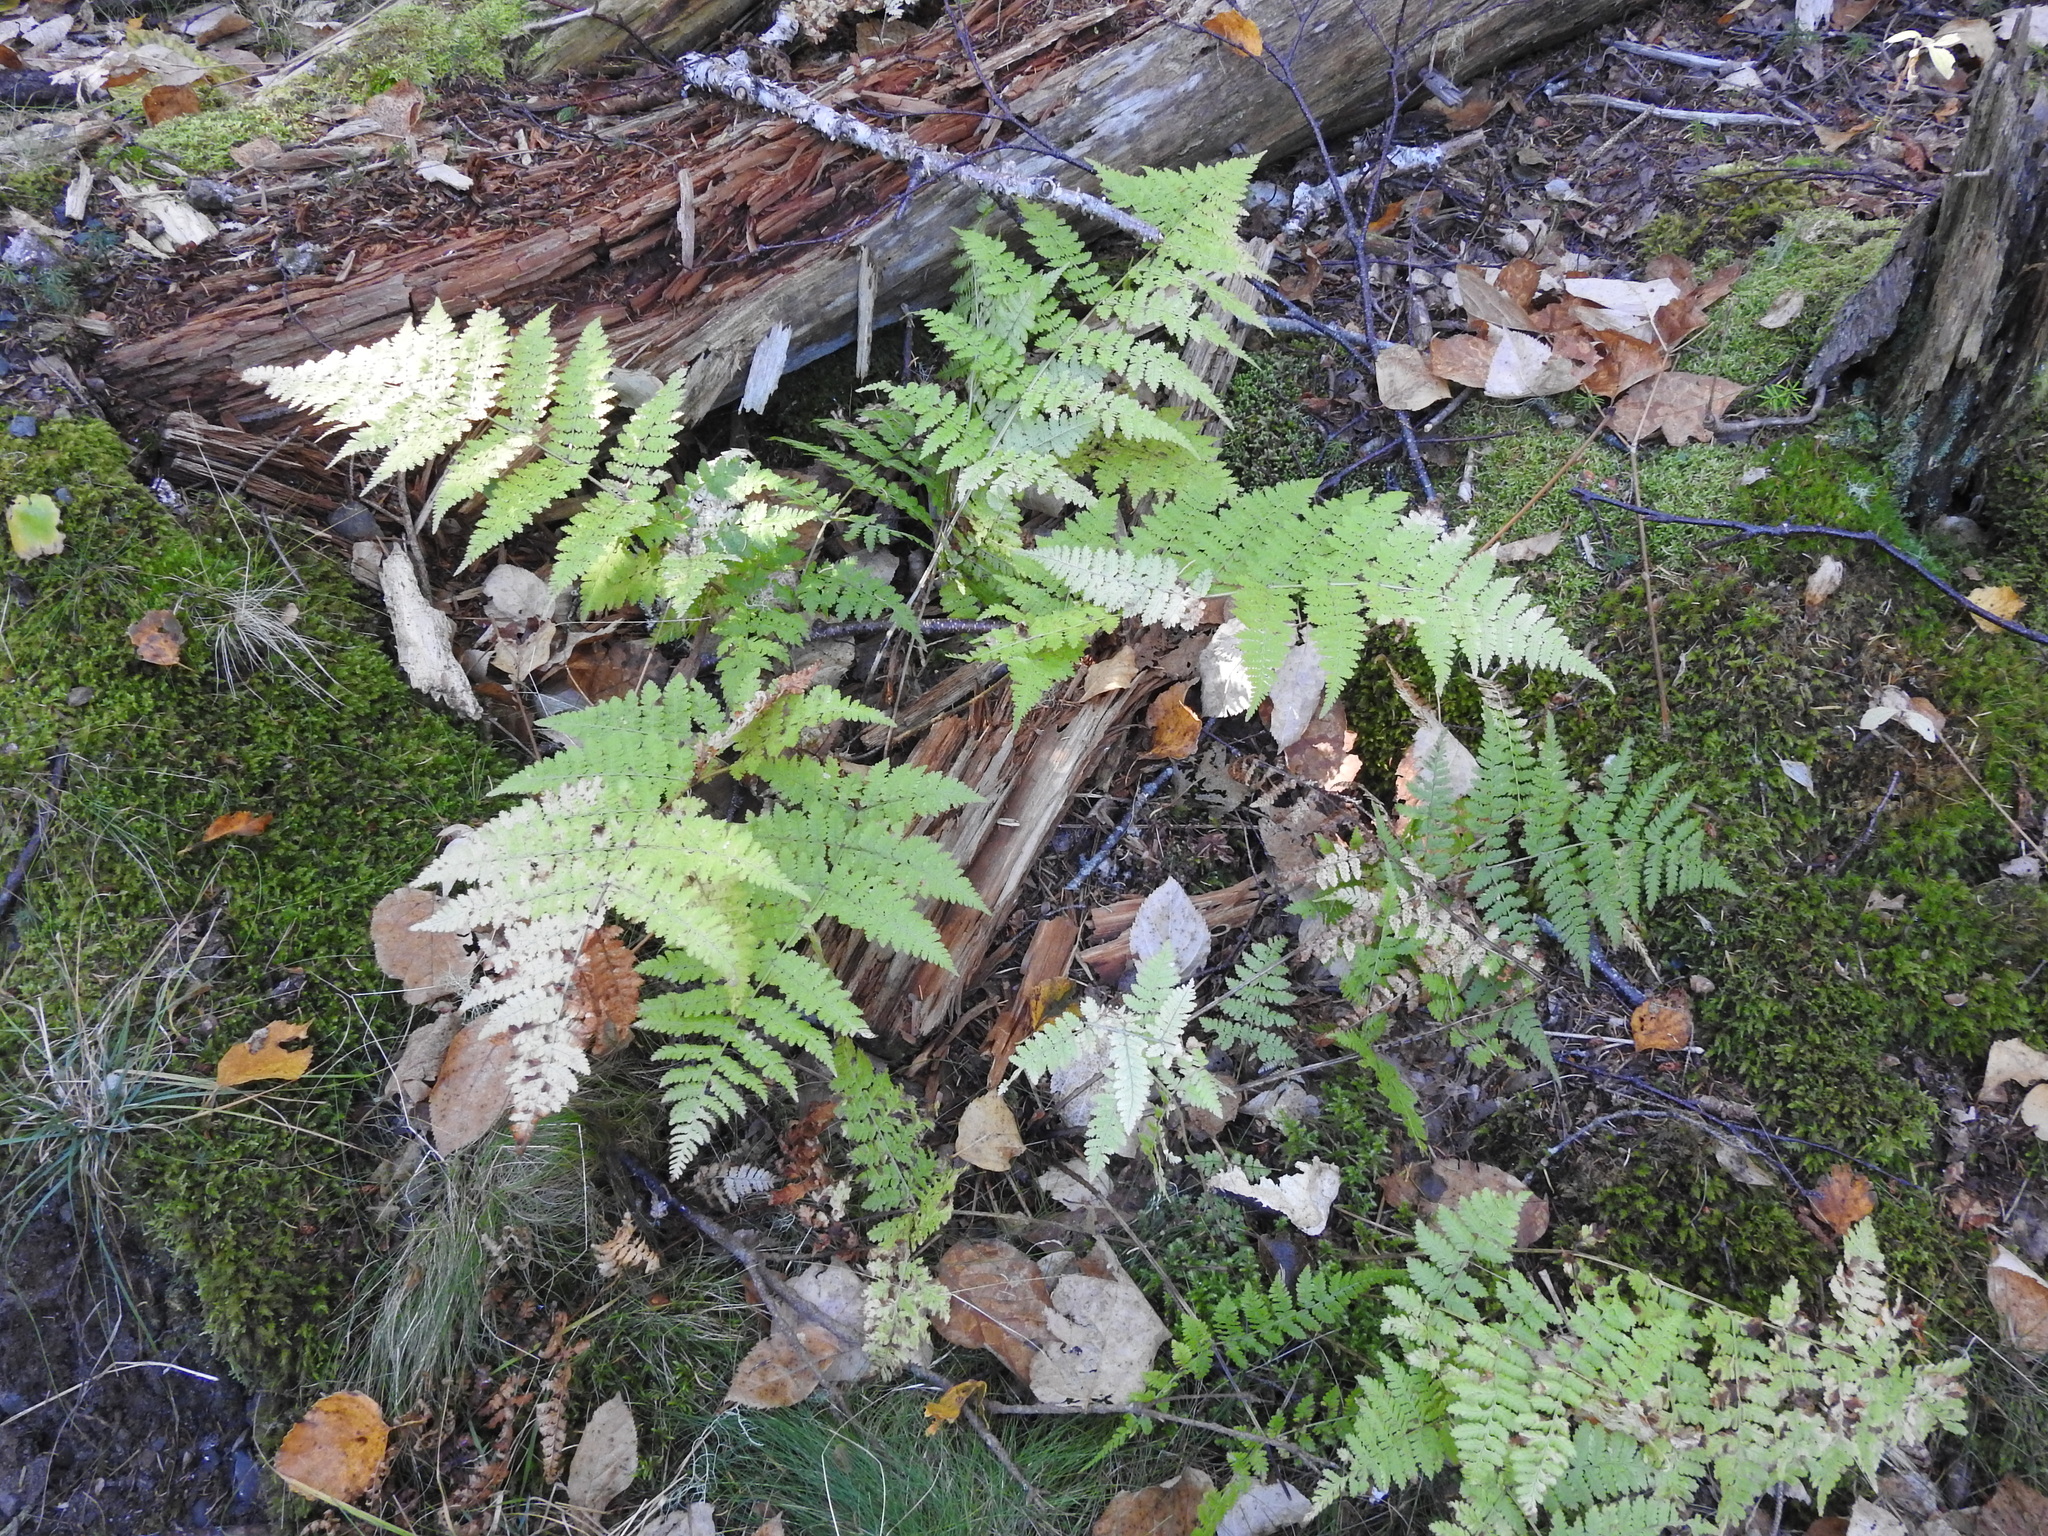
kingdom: Plantae
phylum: Tracheophyta
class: Polypodiopsida
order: Polypodiales
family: Dryopteridaceae
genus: Dryopteris
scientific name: Dryopteris intermedia
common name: Evergreen wood fern
